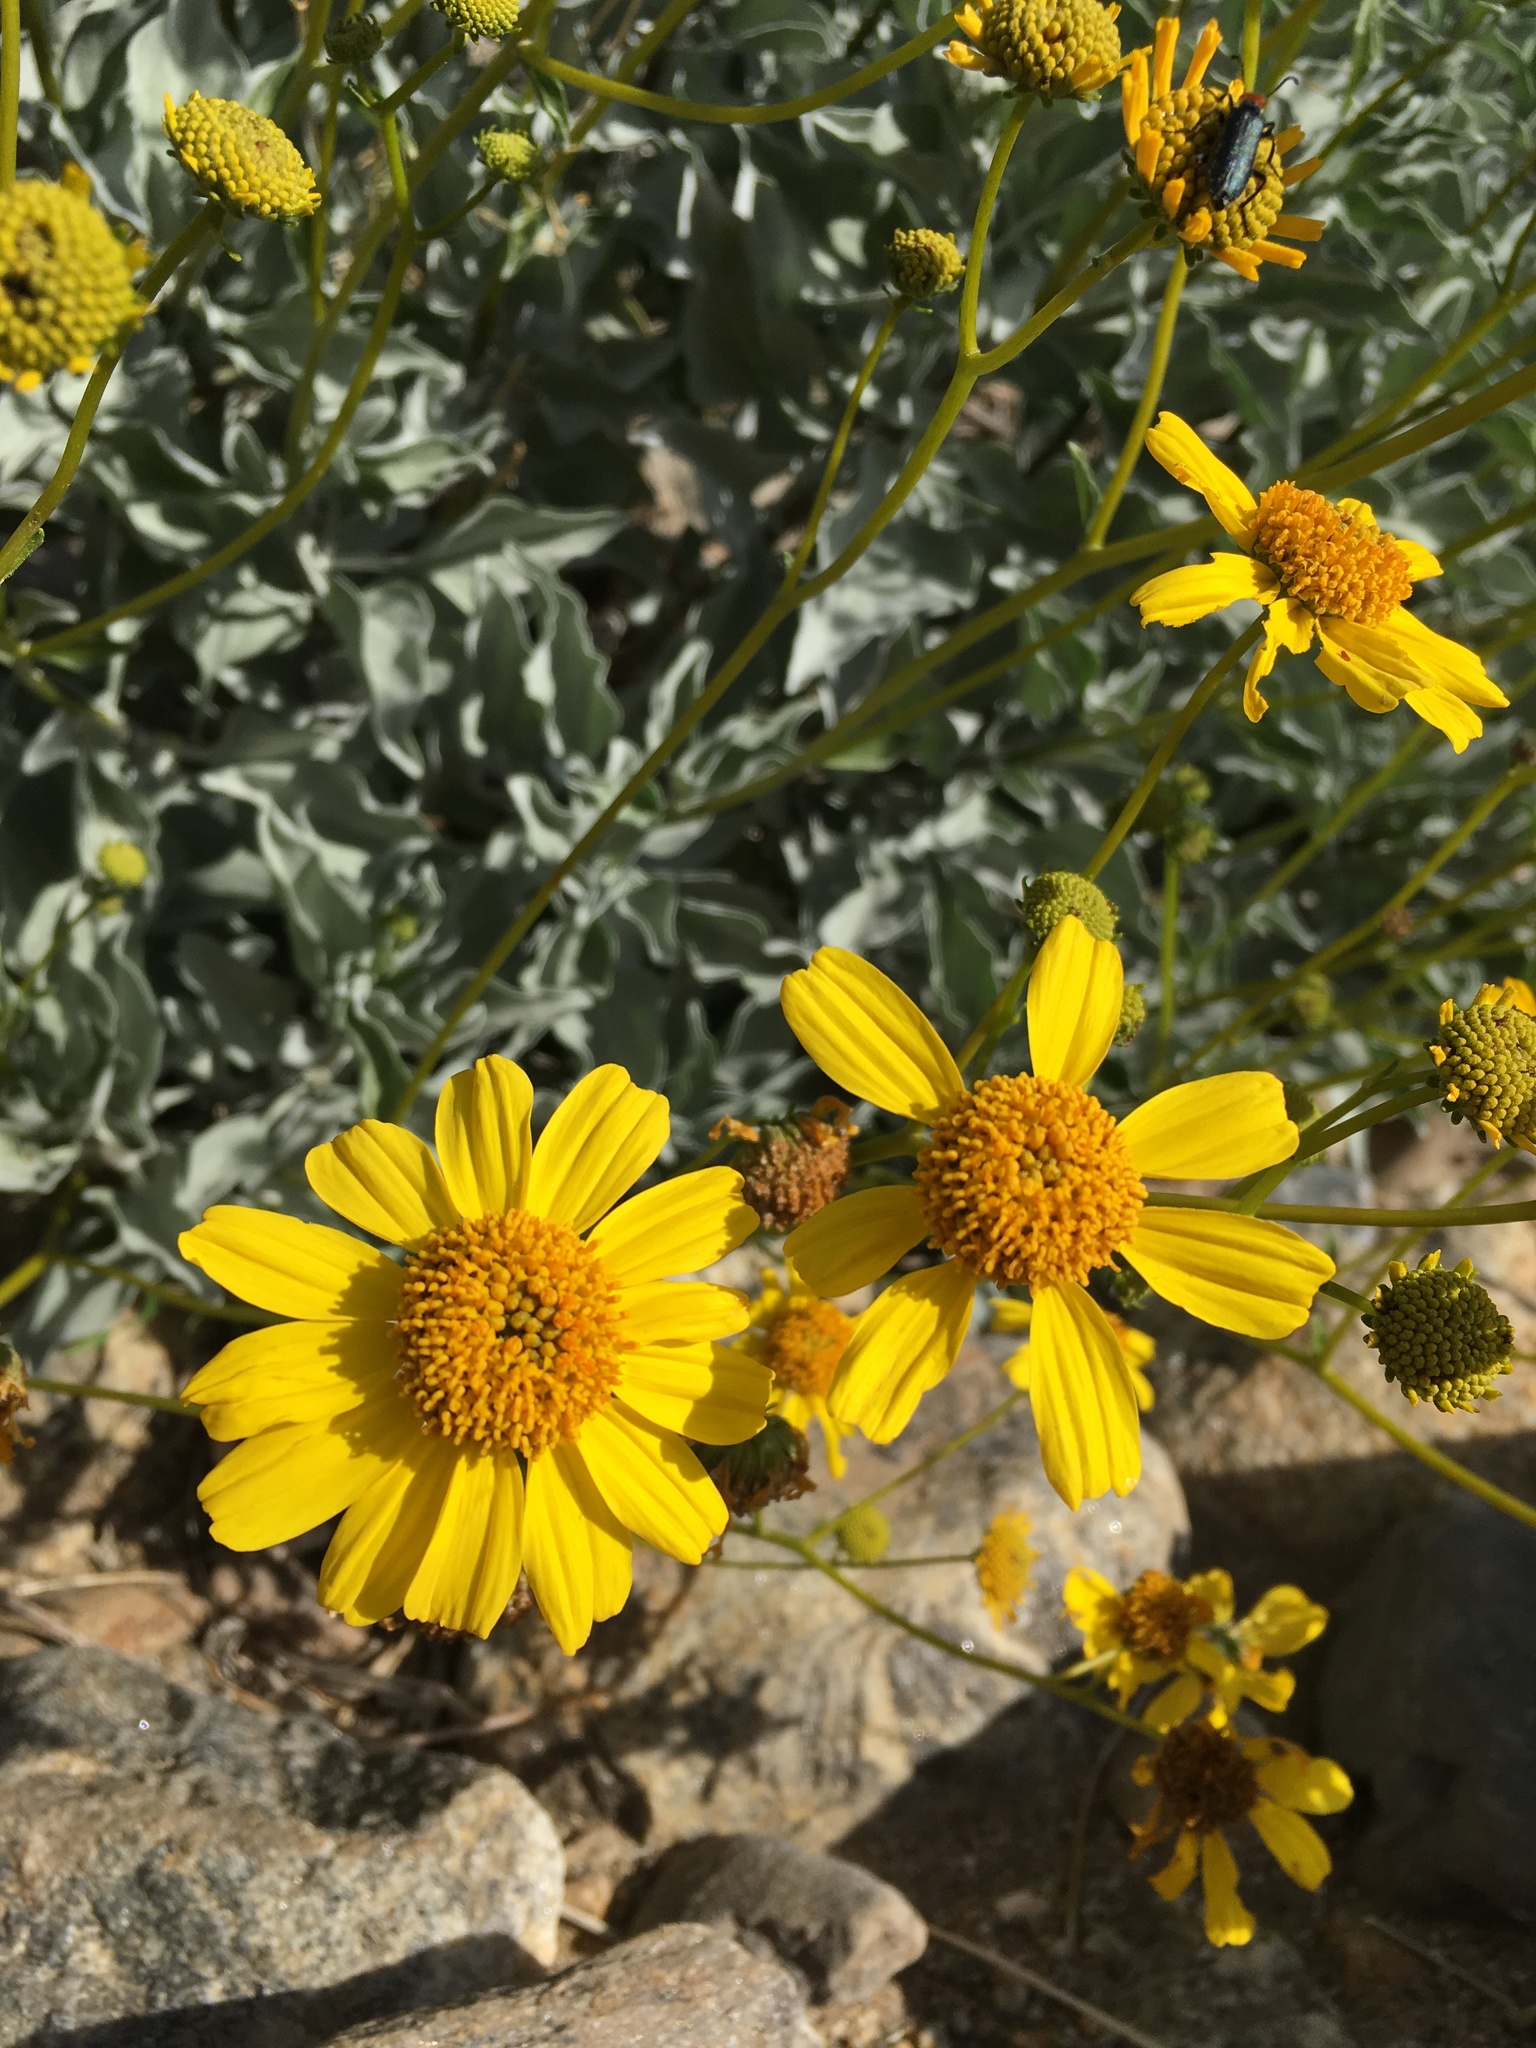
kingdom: Plantae
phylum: Tracheophyta
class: Magnoliopsida
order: Asterales
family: Asteraceae
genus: Encelia
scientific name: Encelia farinosa
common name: Brittlebush
